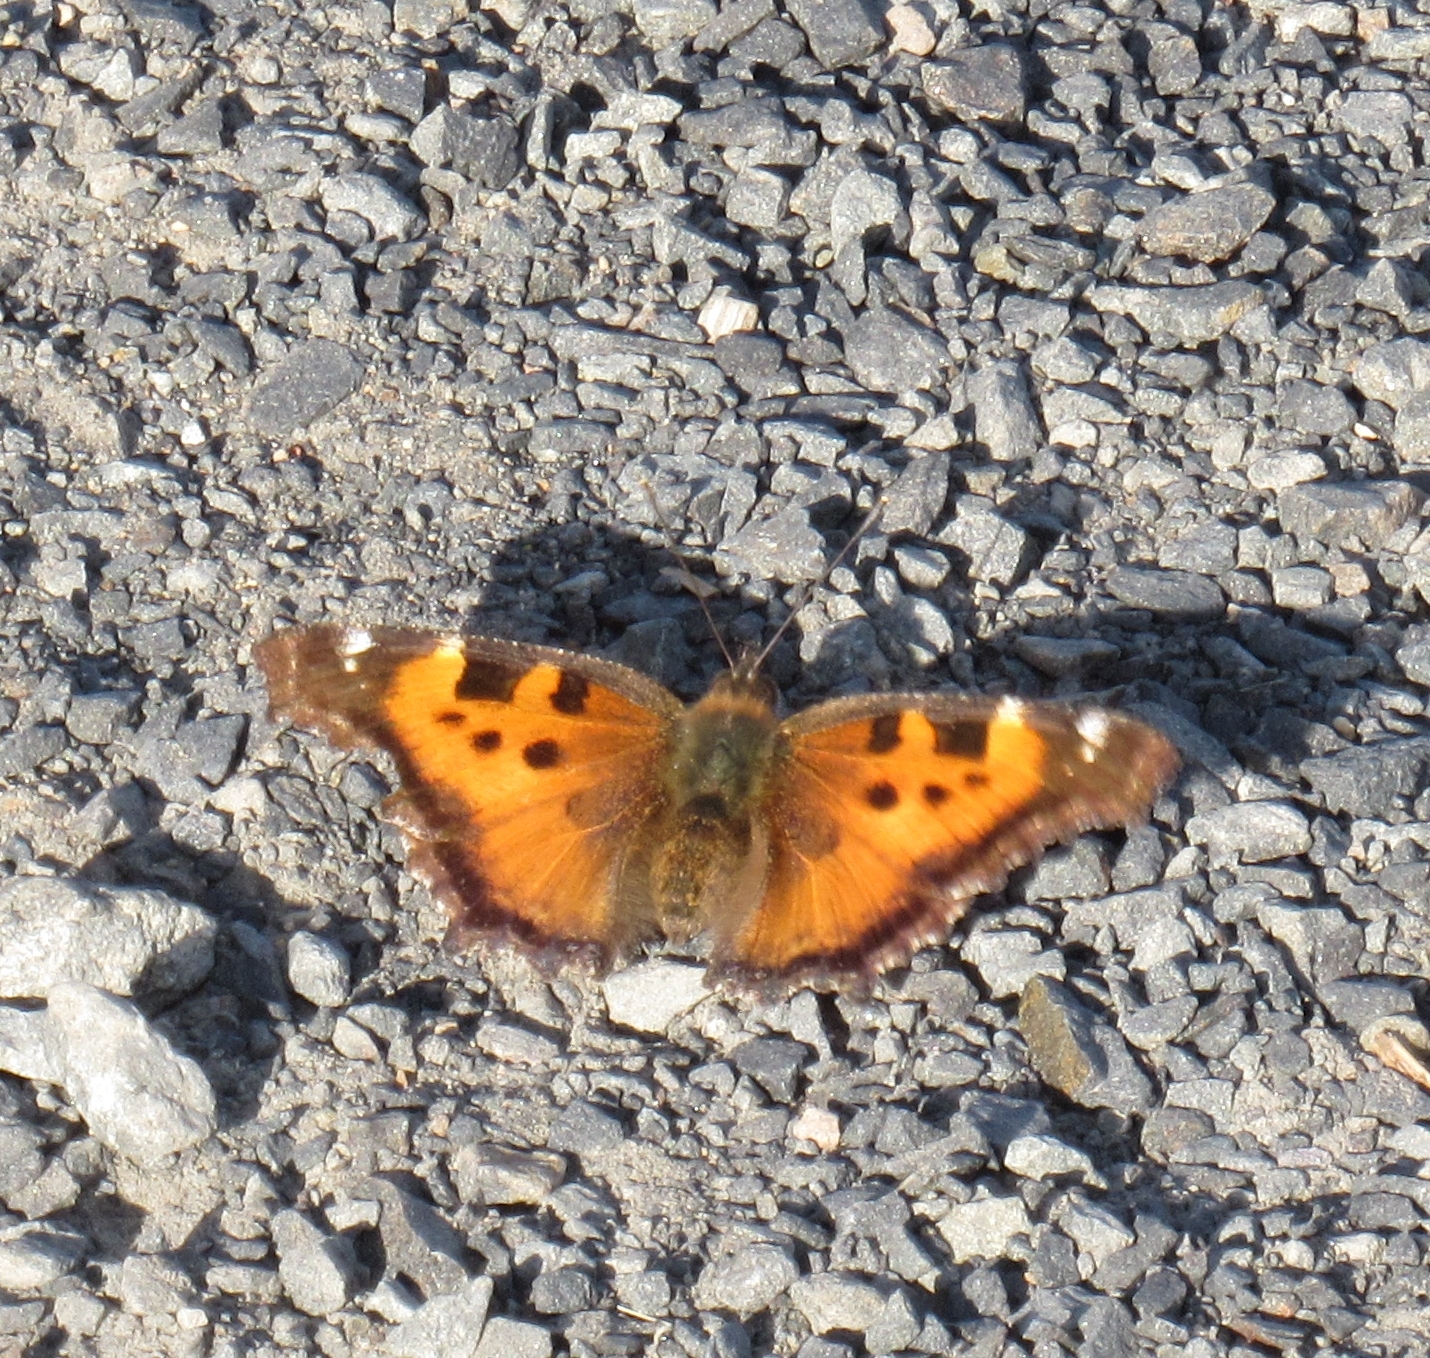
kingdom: Animalia
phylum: Arthropoda
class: Insecta
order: Lepidoptera
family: Nymphalidae
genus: Nymphalis
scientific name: Nymphalis californica
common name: California tortoiseshell
